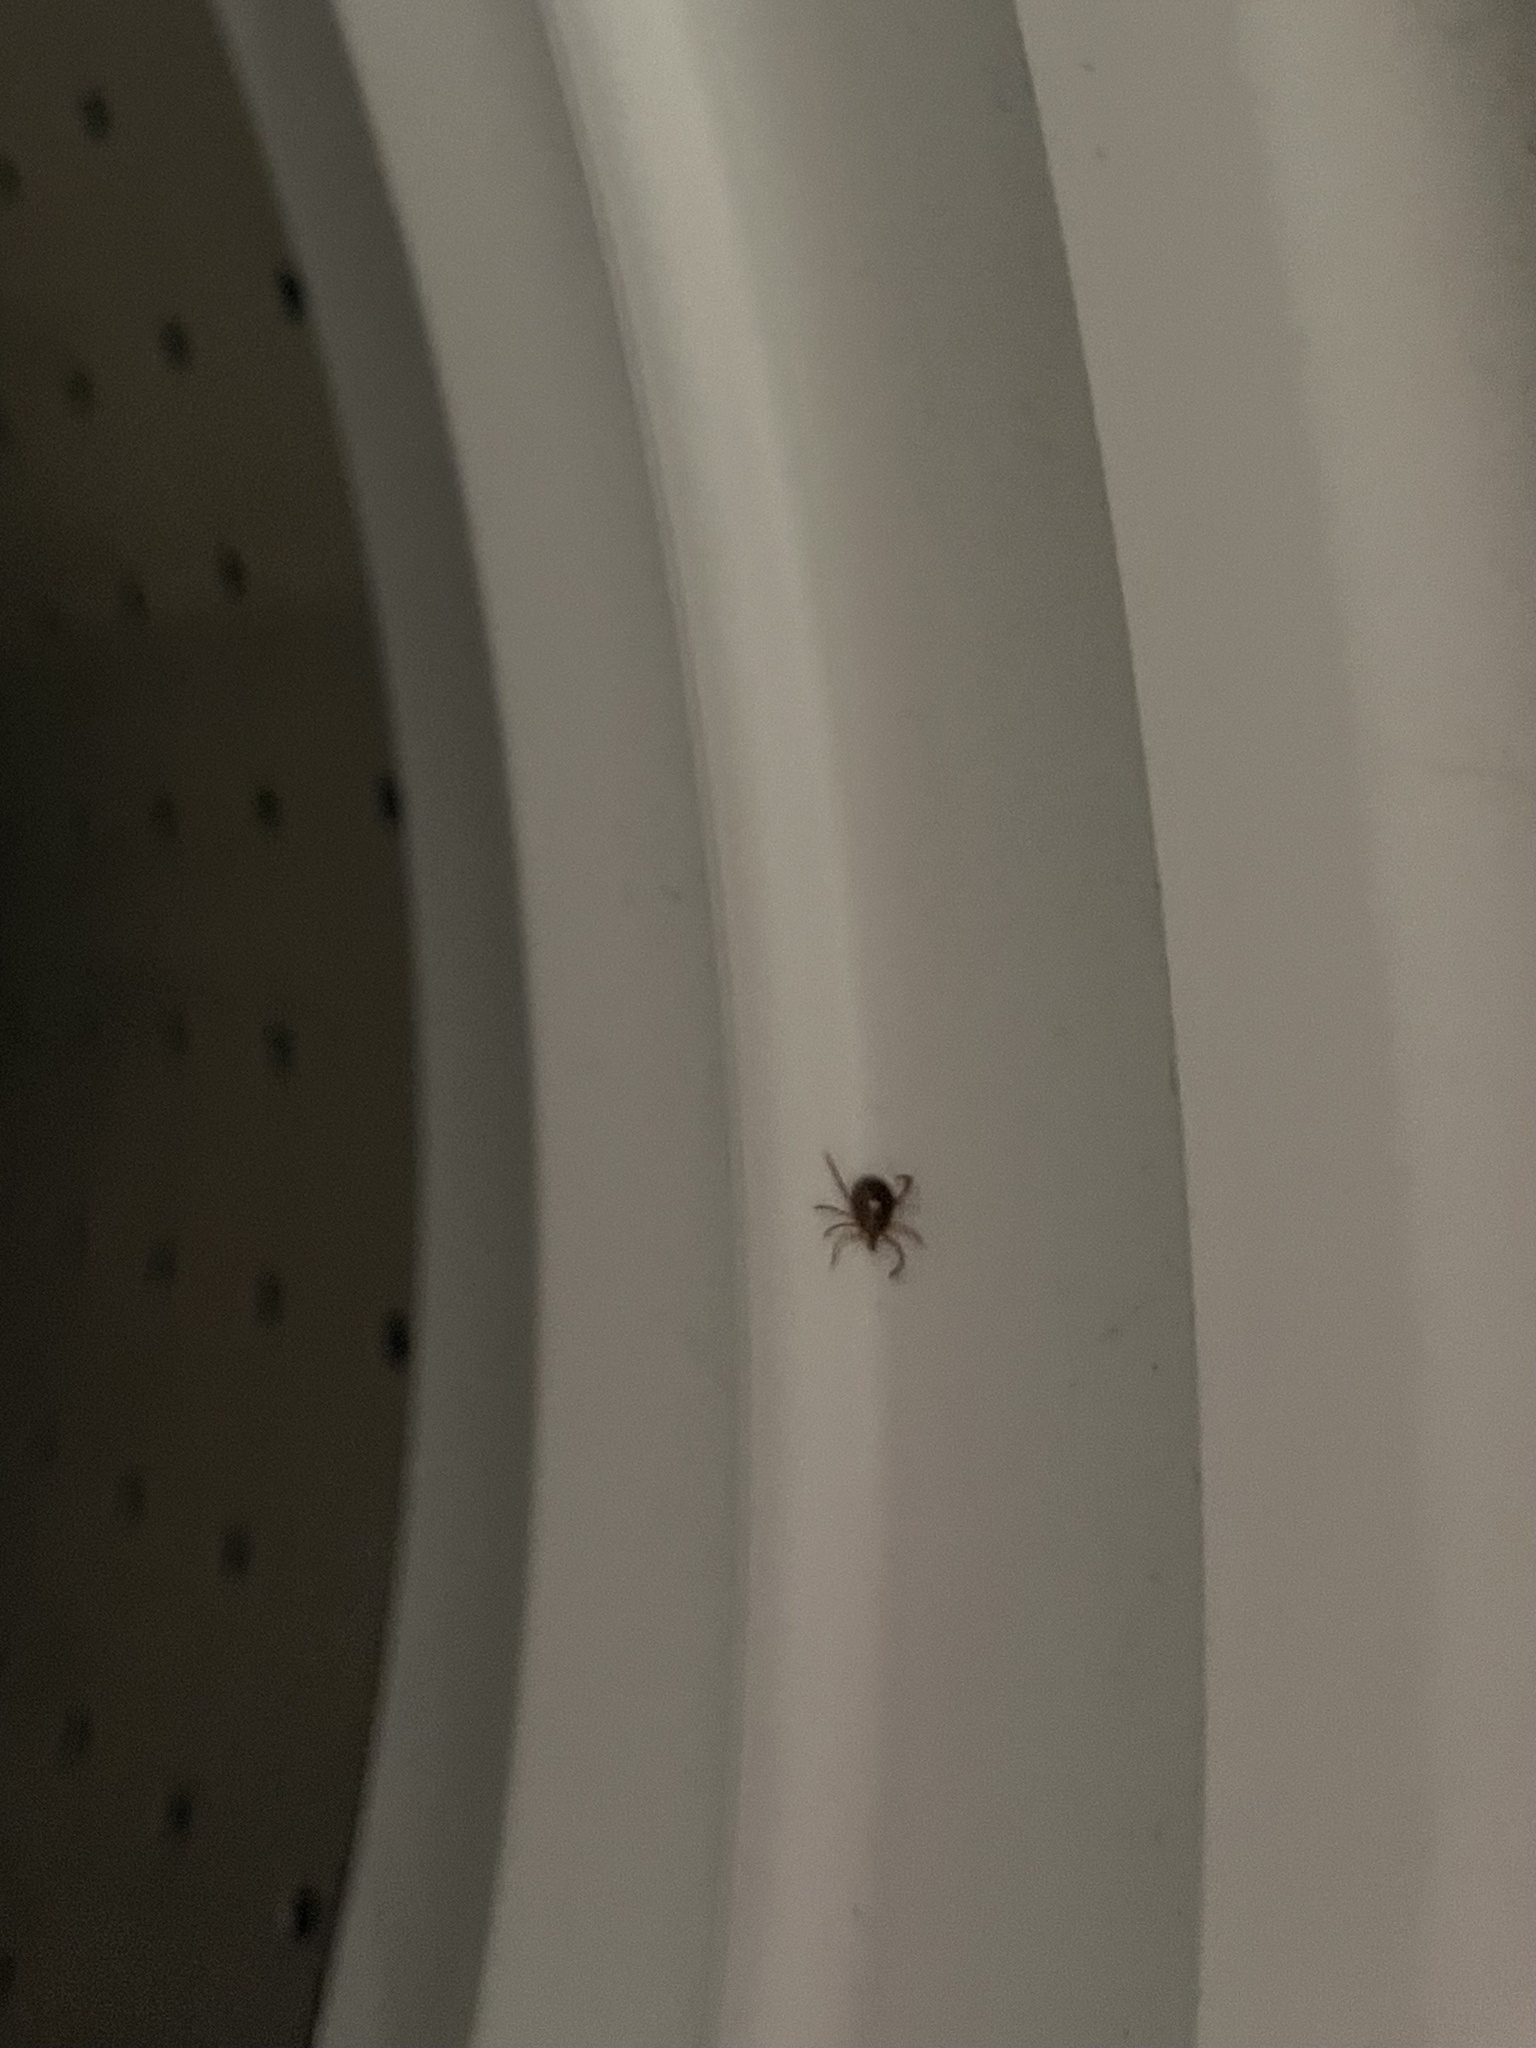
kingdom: Animalia
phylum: Arthropoda
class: Arachnida
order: Ixodida
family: Ixodidae
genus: Amblyomma
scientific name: Amblyomma americanum
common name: Lone star tick
